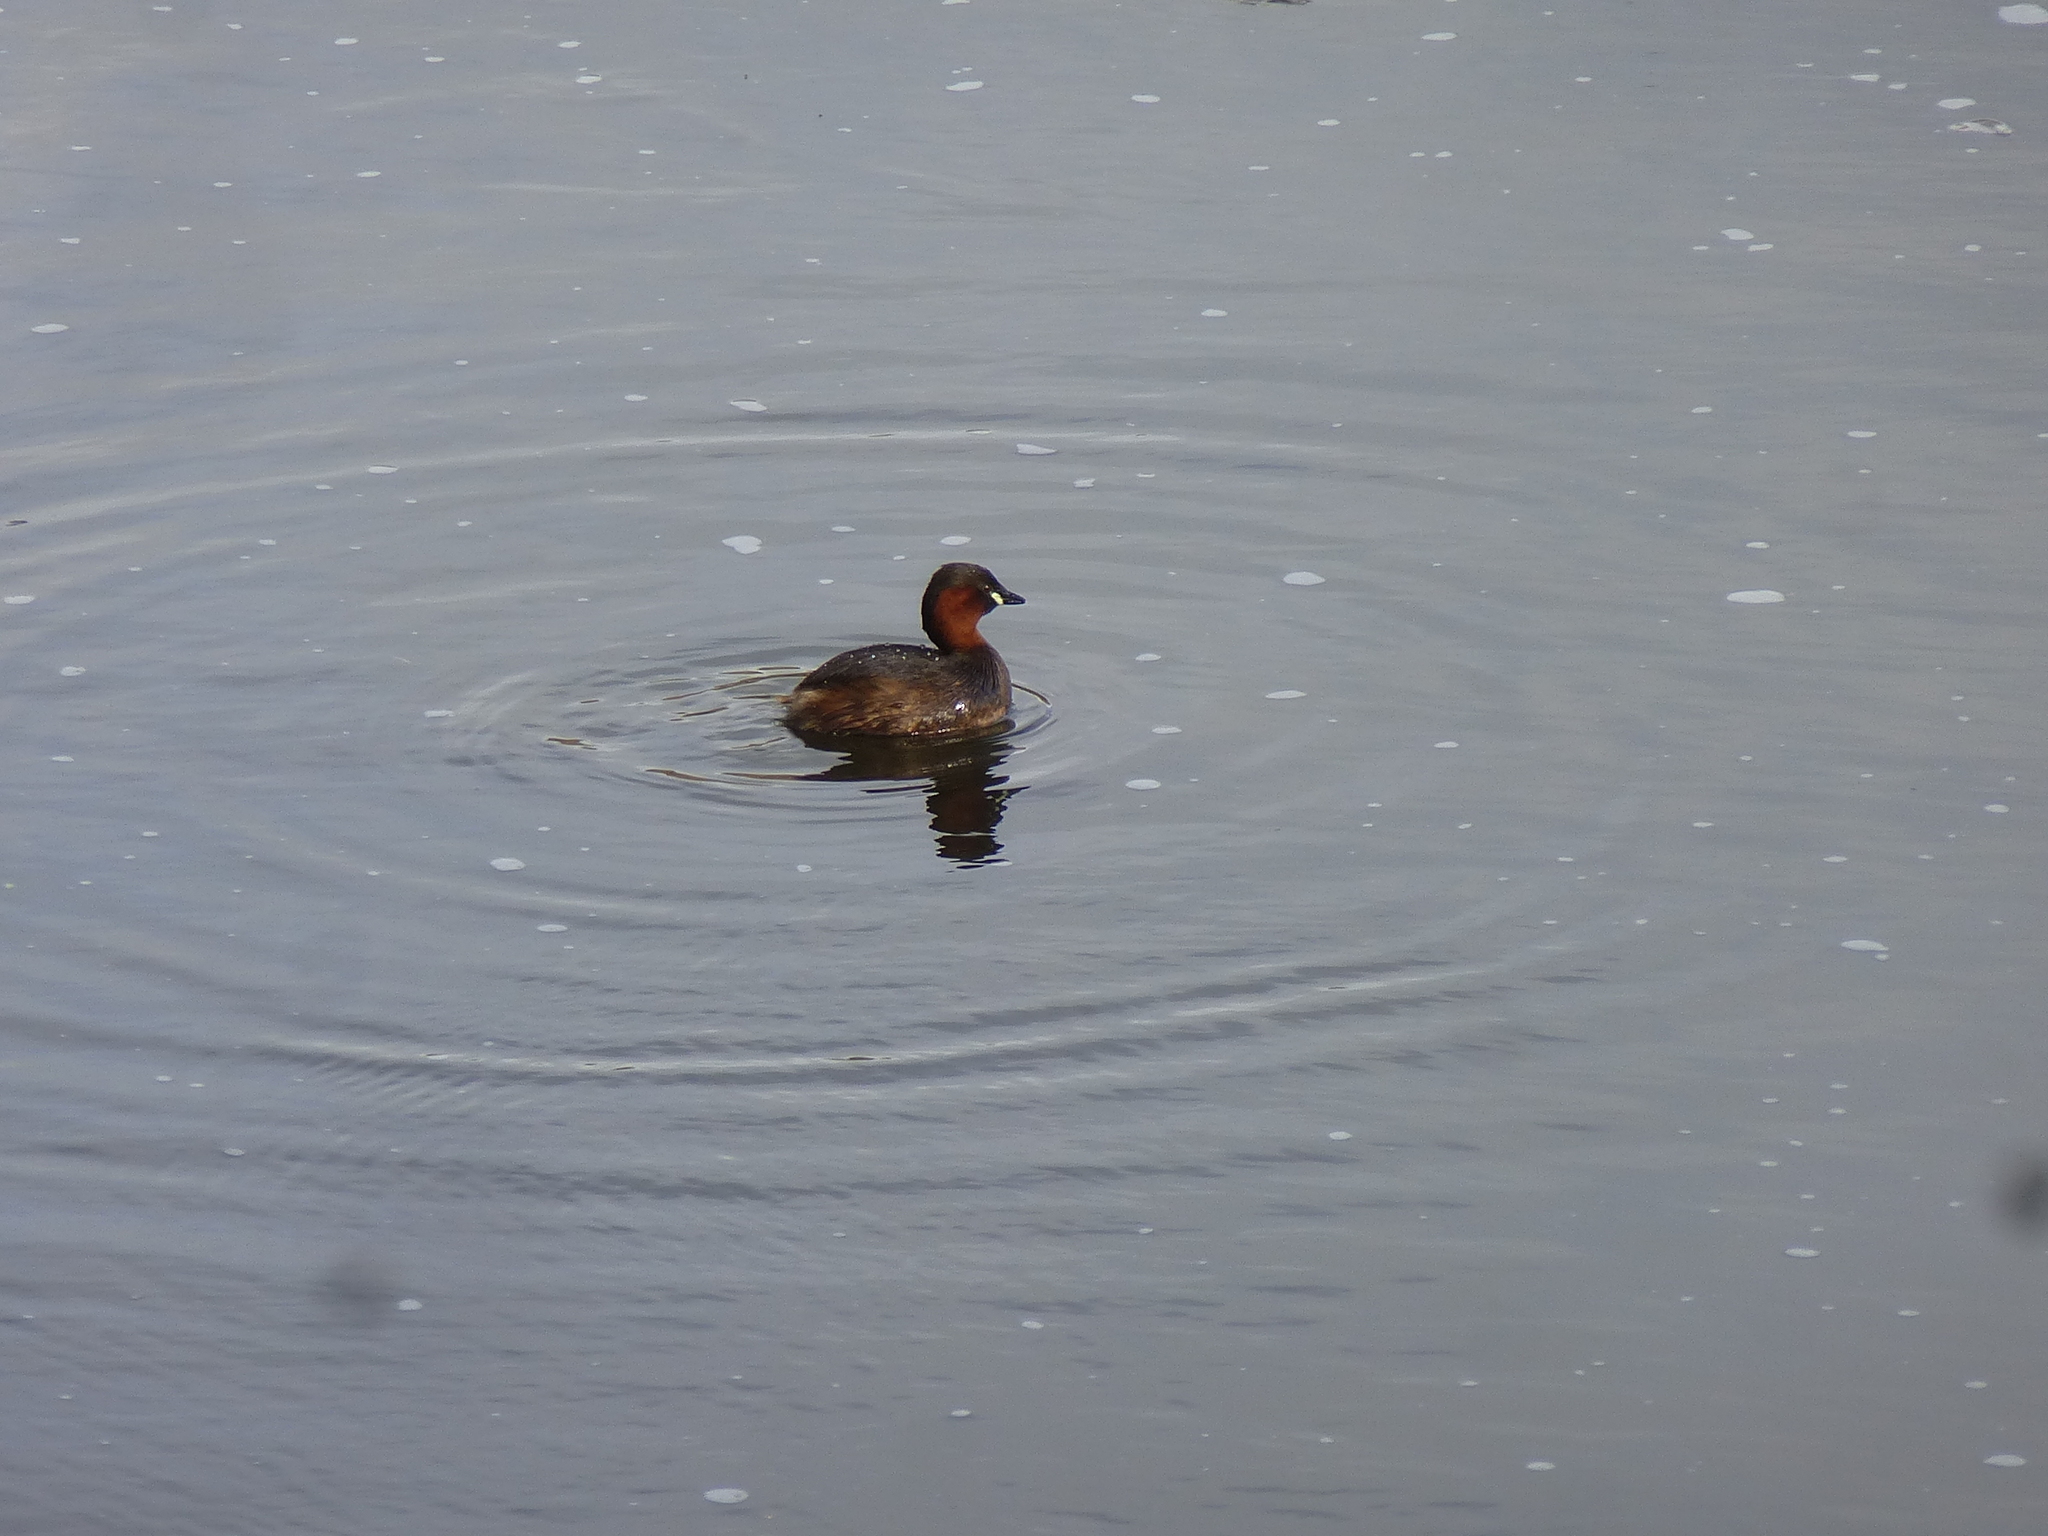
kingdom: Animalia
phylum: Chordata
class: Aves
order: Podicipediformes
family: Podicipedidae
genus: Tachybaptus
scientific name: Tachybaptus ruficollis
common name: Little grebe
